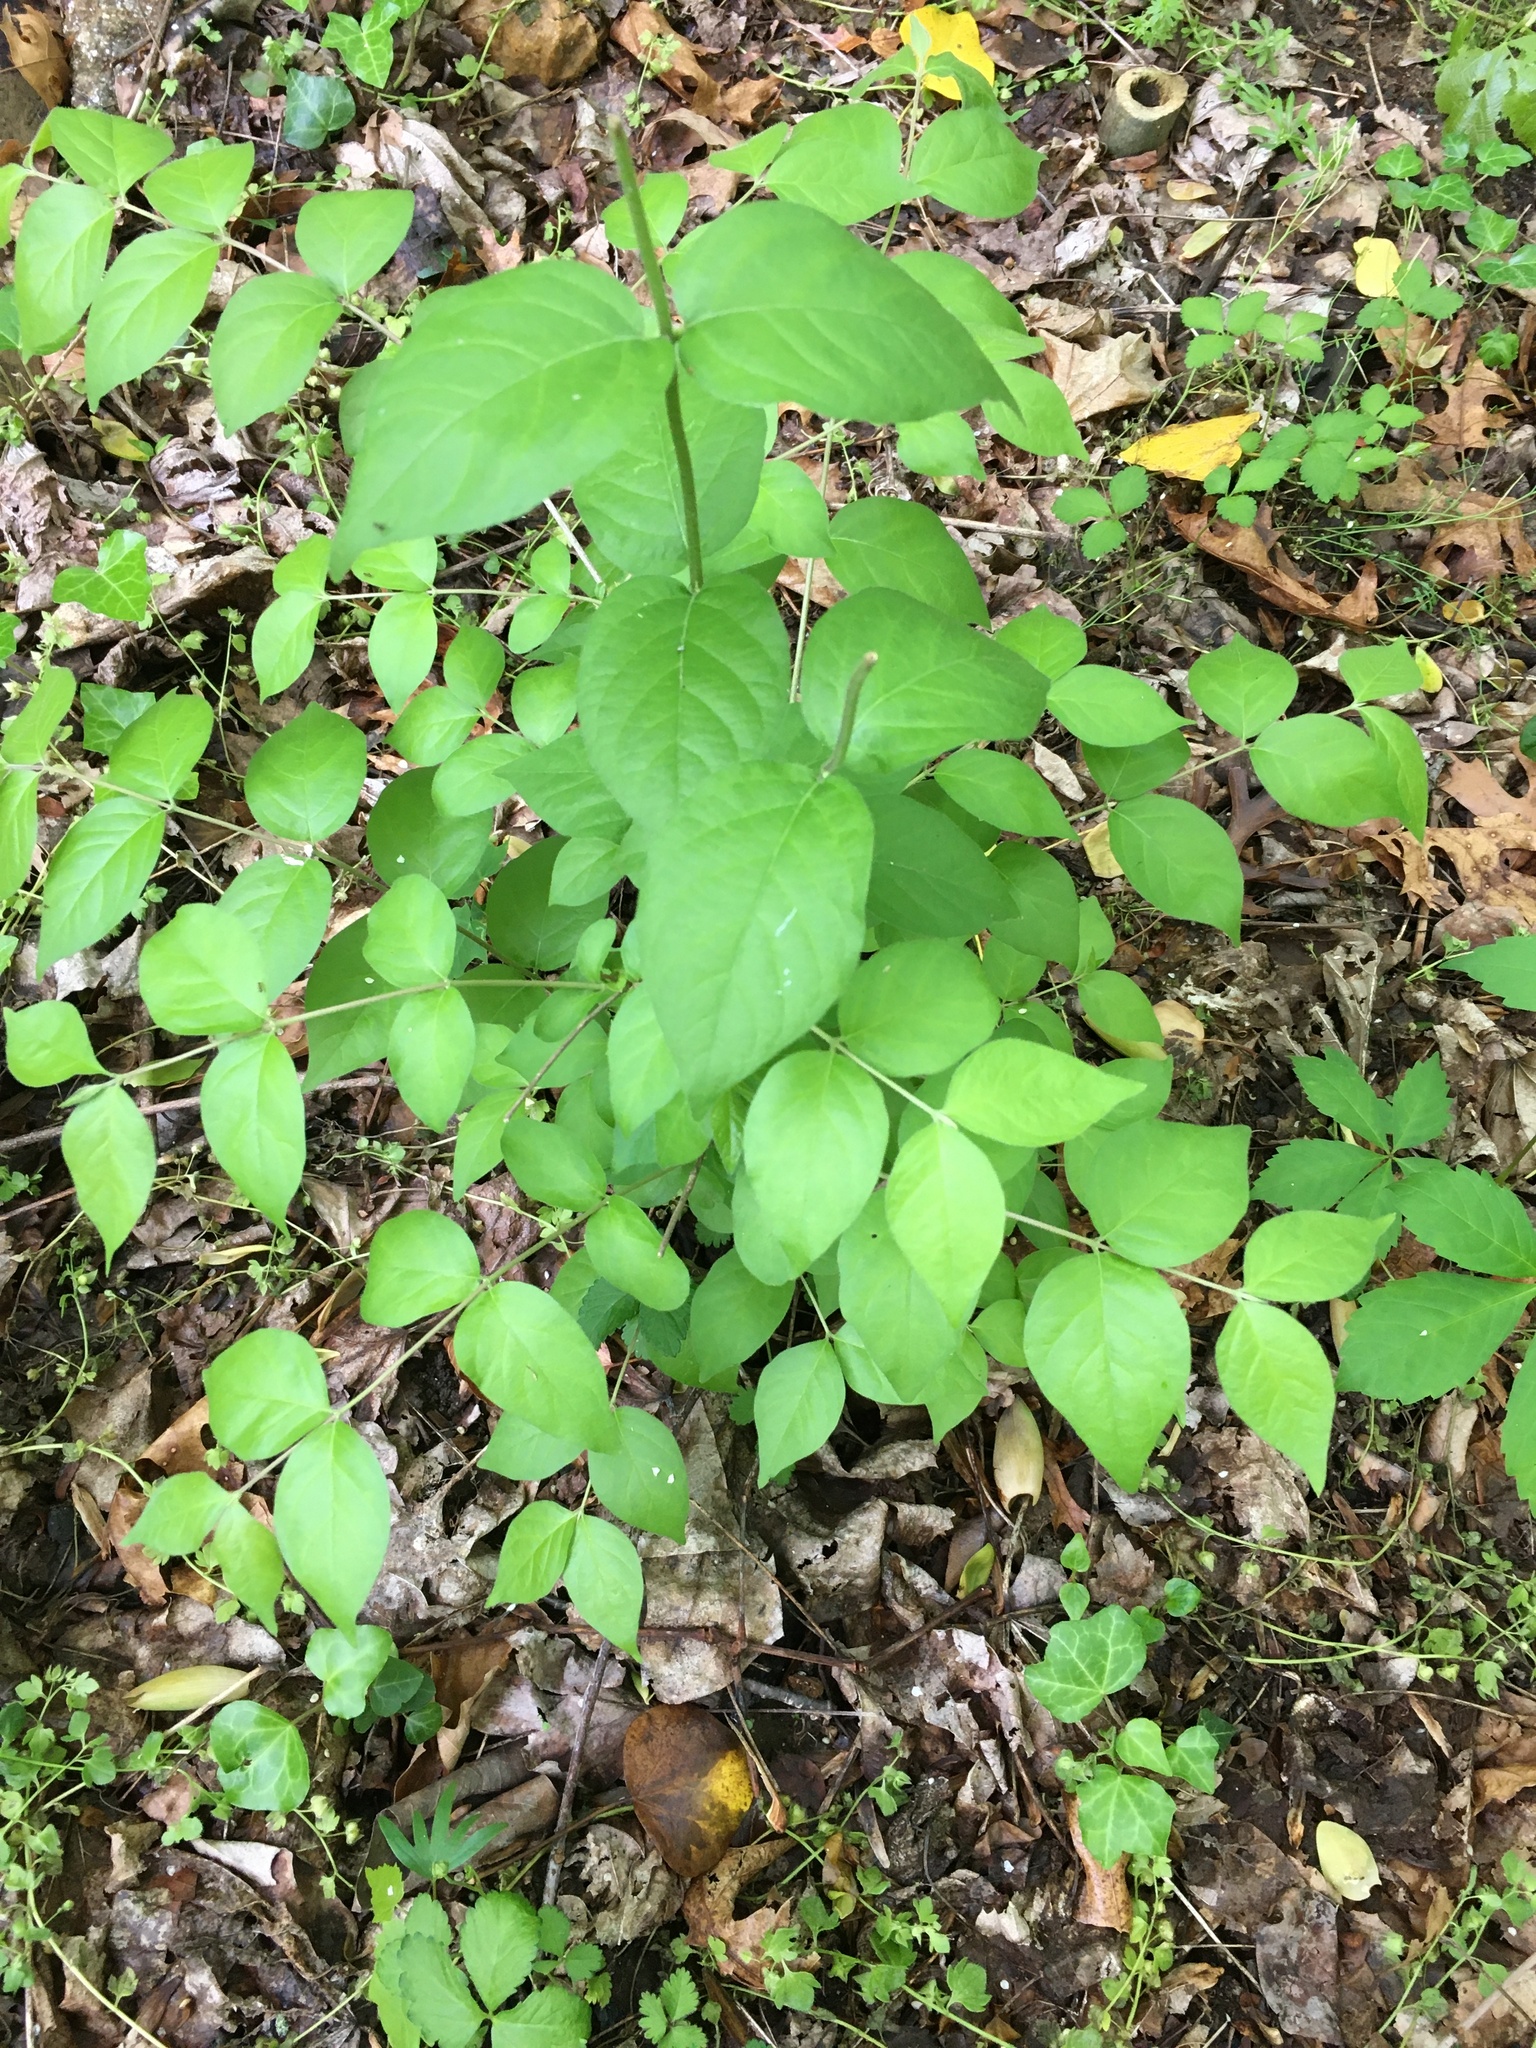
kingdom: Plantae
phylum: Tracheophyta
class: Magnoliopsida
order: Dipsacales
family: Caprifoliaceae
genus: Lonicera
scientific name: Lonicera maackii
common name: Amur honeysuckle
